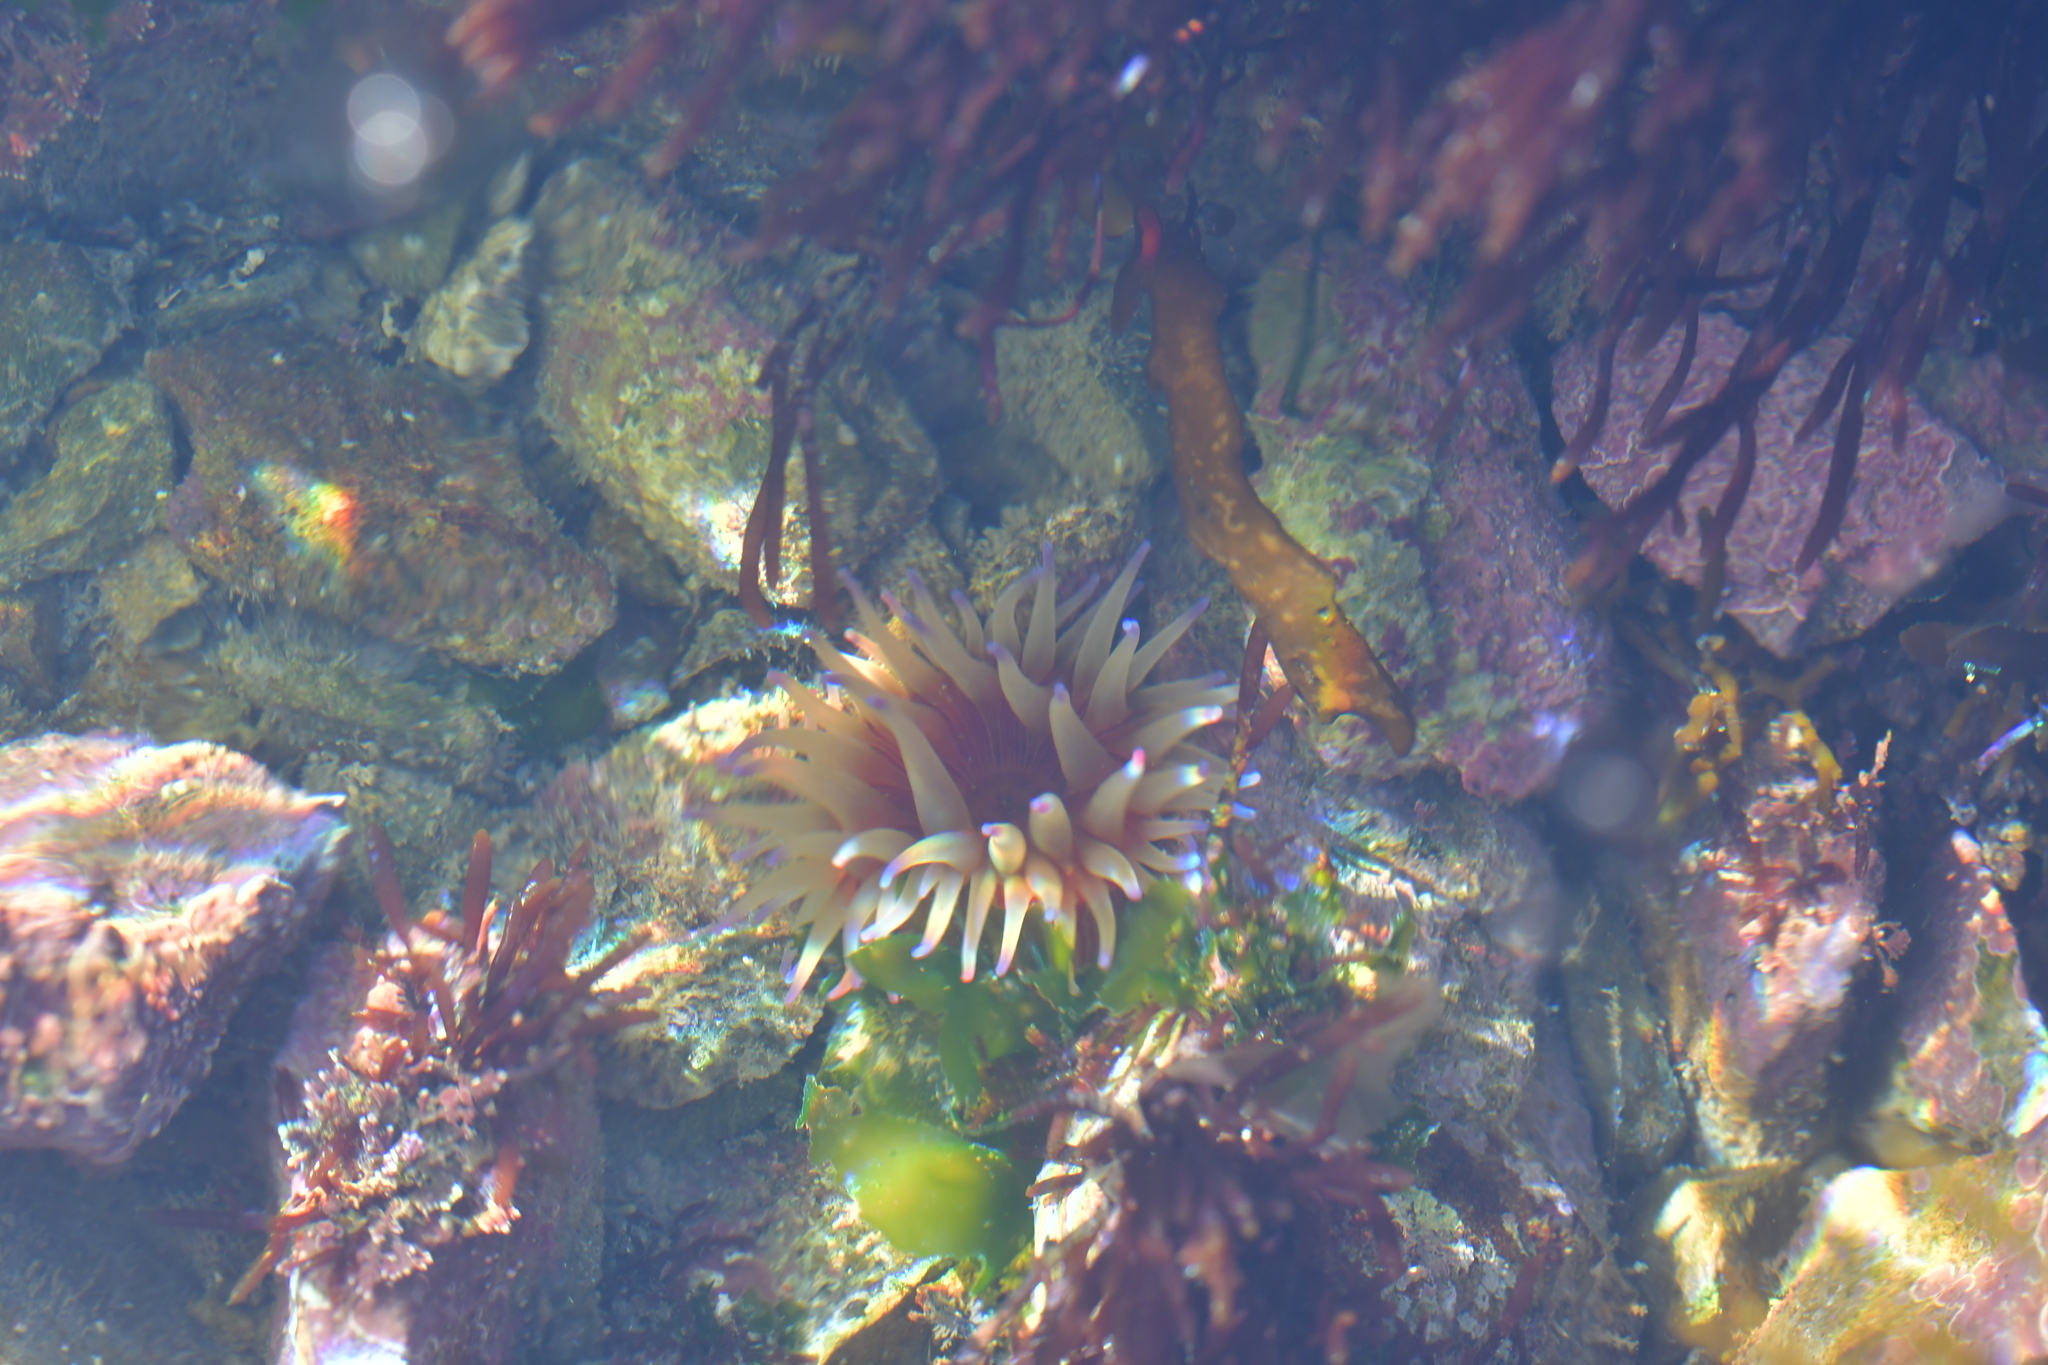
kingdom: Animalia
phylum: Cnidaria
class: Anthozoa
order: Actiniaria
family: Actiniidae
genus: Epiactis
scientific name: Epiactis thompsoni
